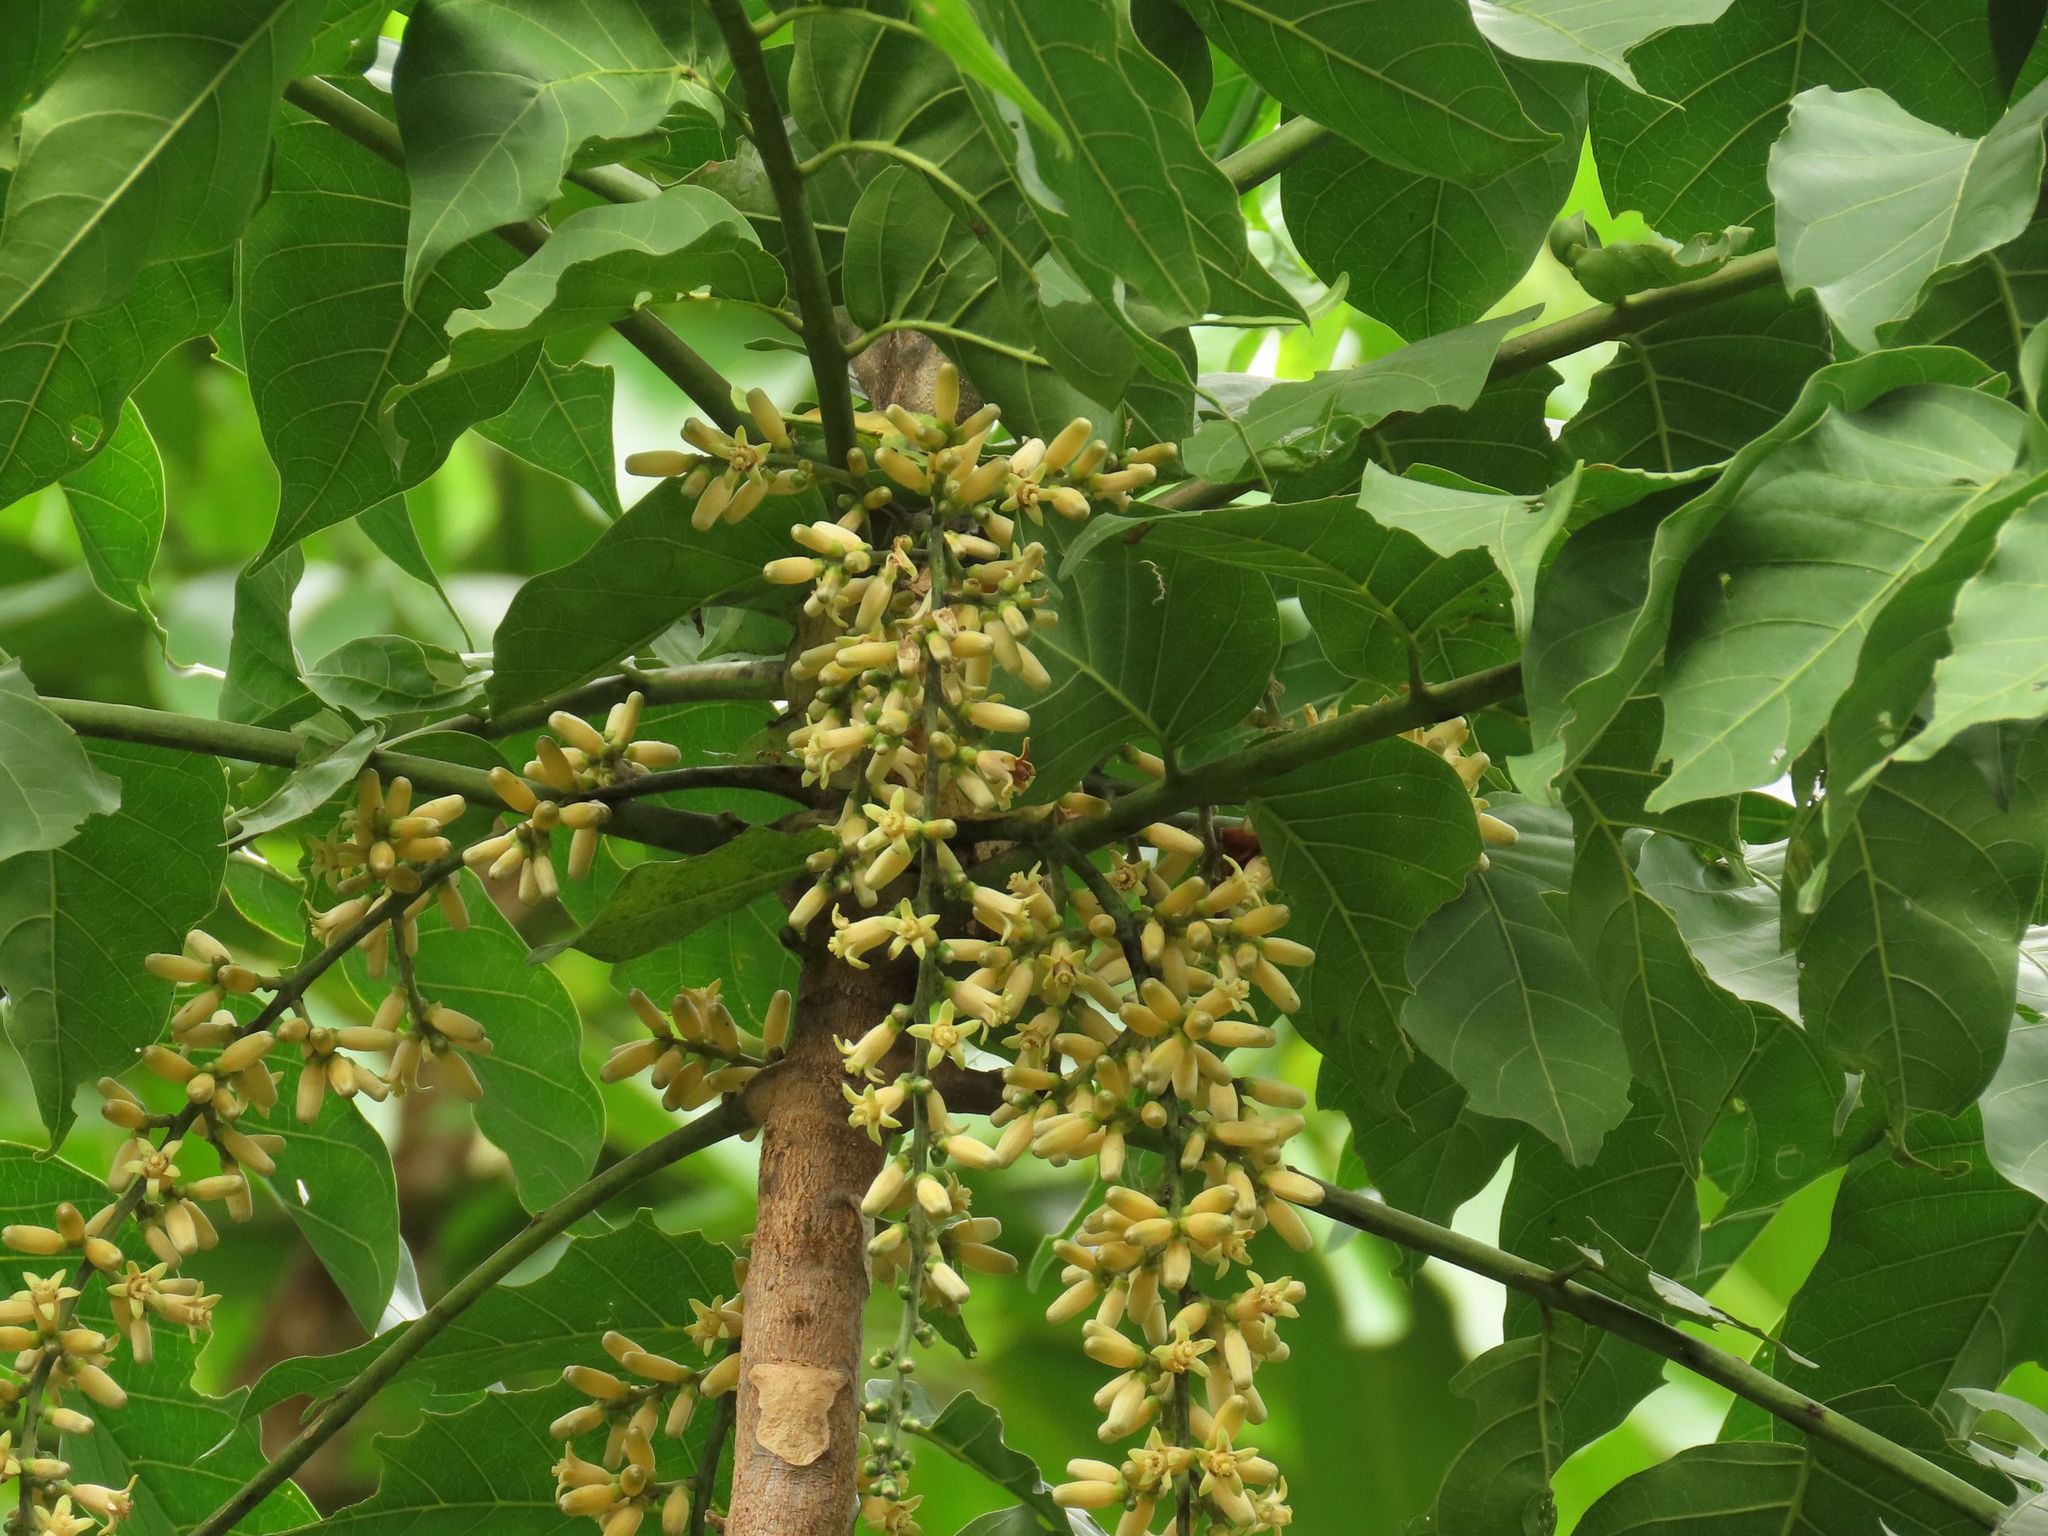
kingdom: Plantae
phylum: Tracheophyta
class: Magnoliopsida
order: Sapindales
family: Meliaceae
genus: Didymocheton
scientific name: Didymocheton gaudichaudianus
